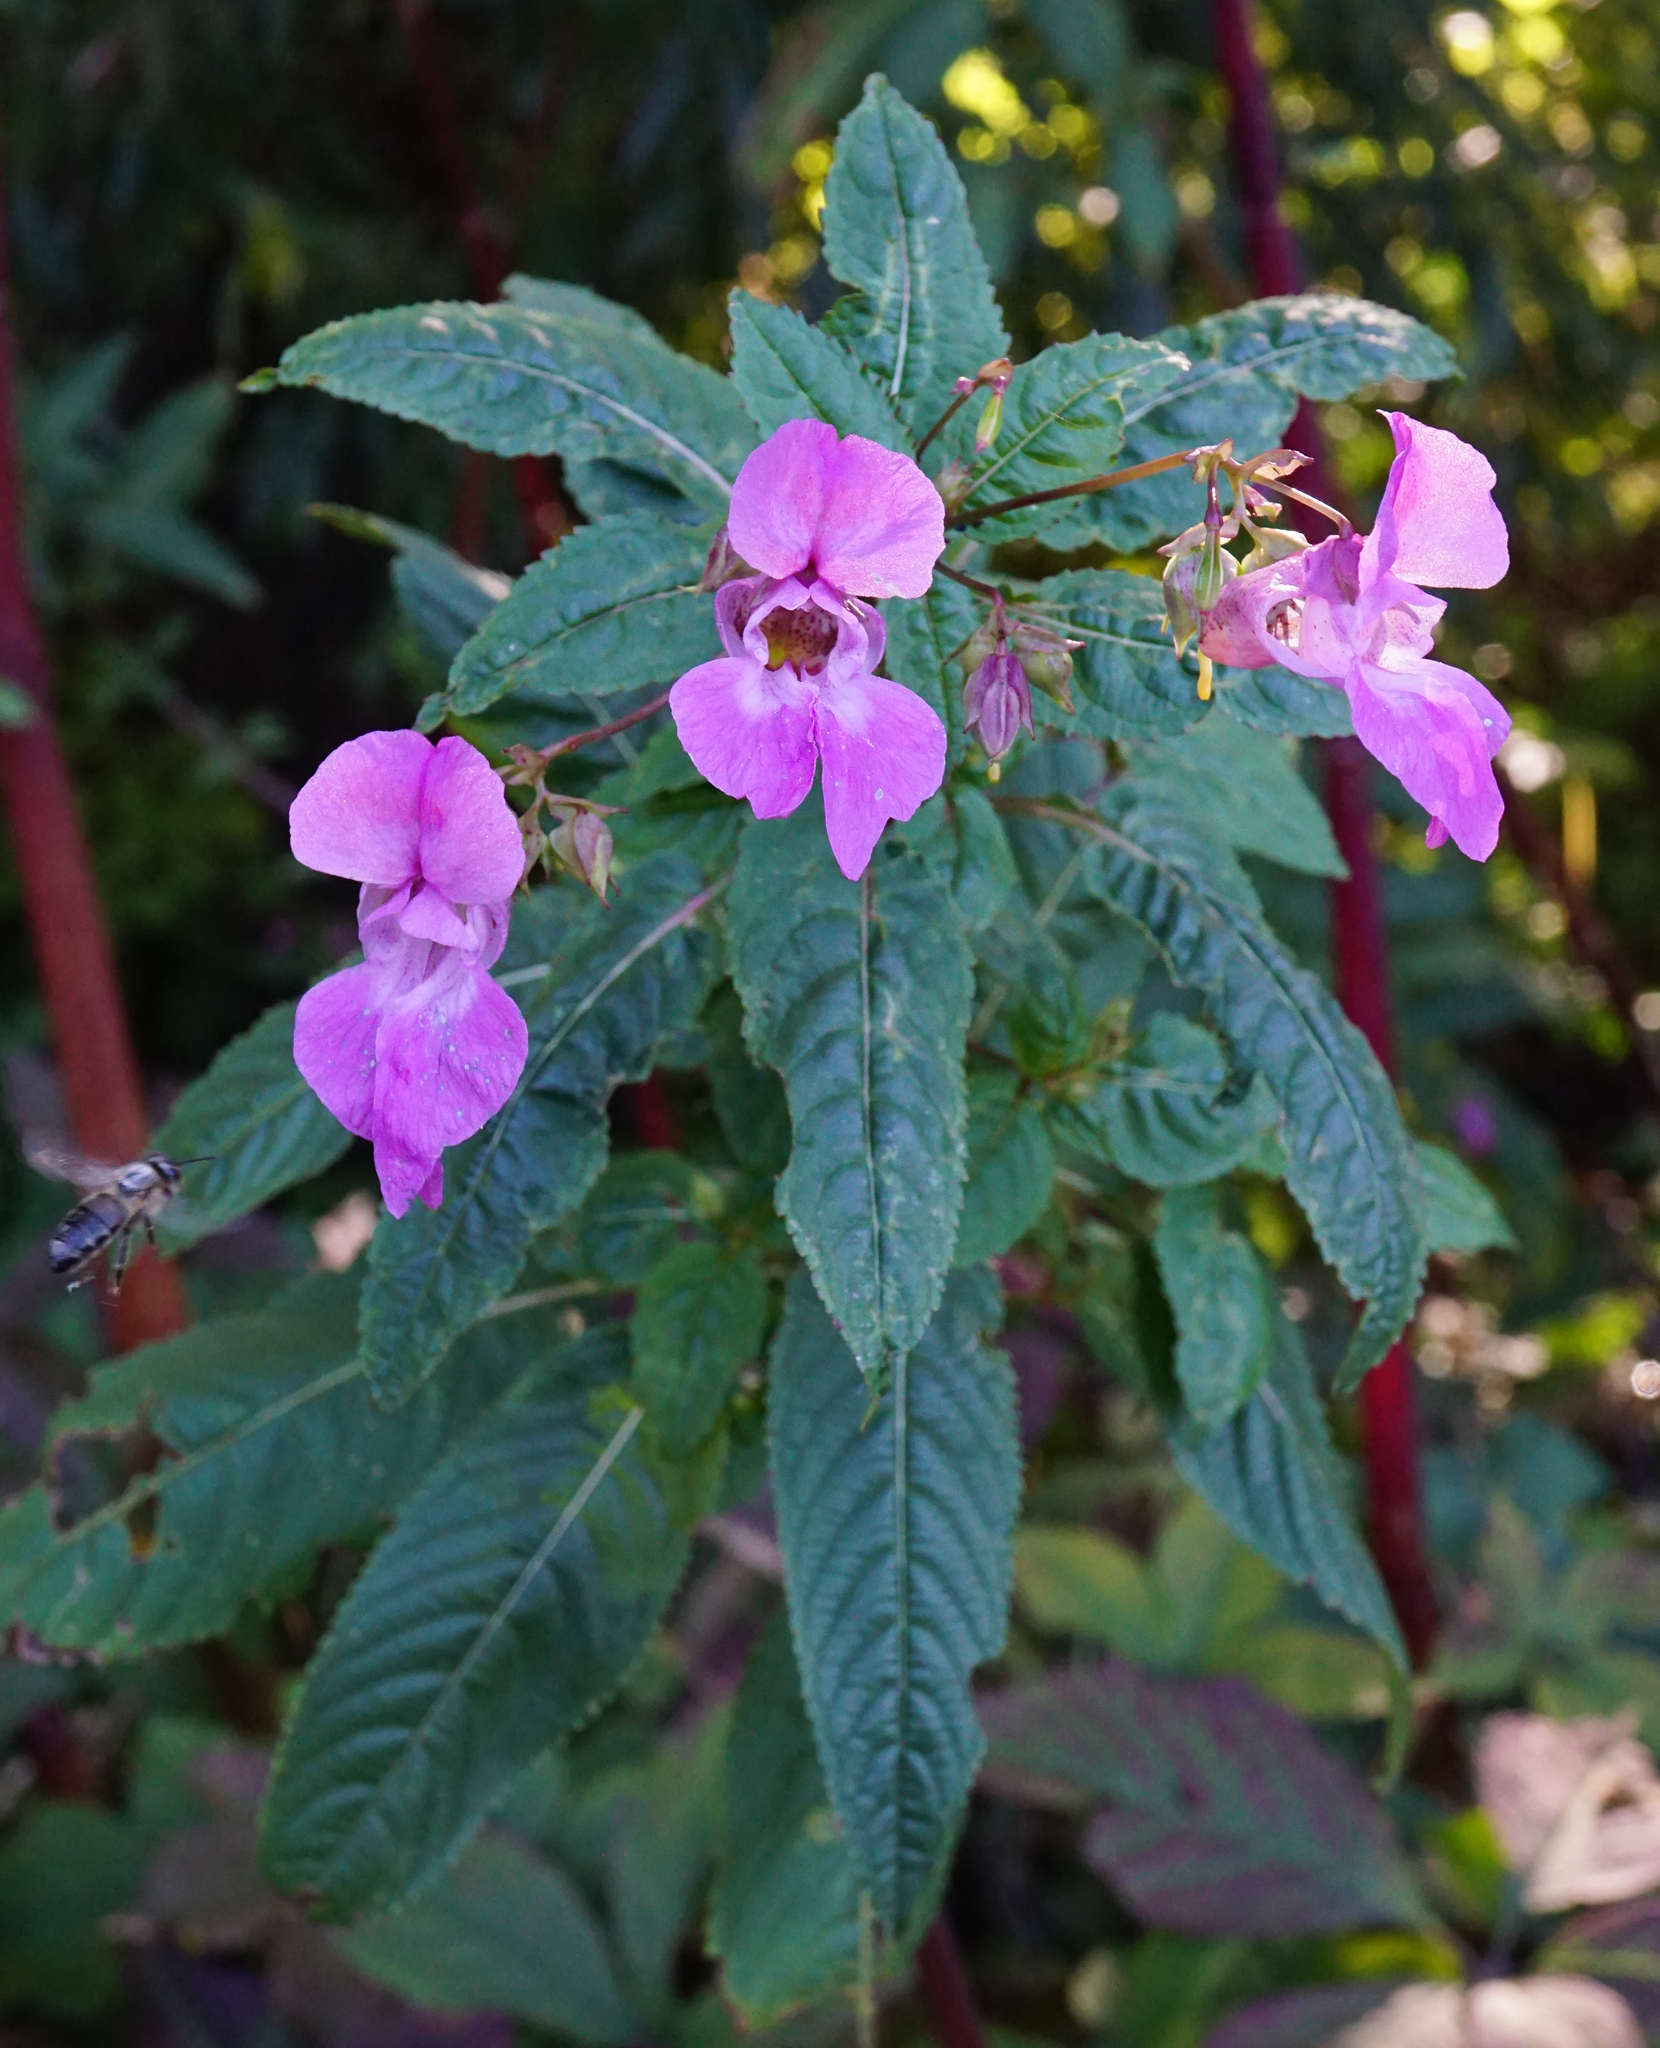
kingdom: Plantae
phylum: Tracheophyta
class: Magnoliopsida
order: Ericales
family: Balsaminaceae
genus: Impatiens
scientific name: Impatiens glandulifera
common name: Himalayan balsam
